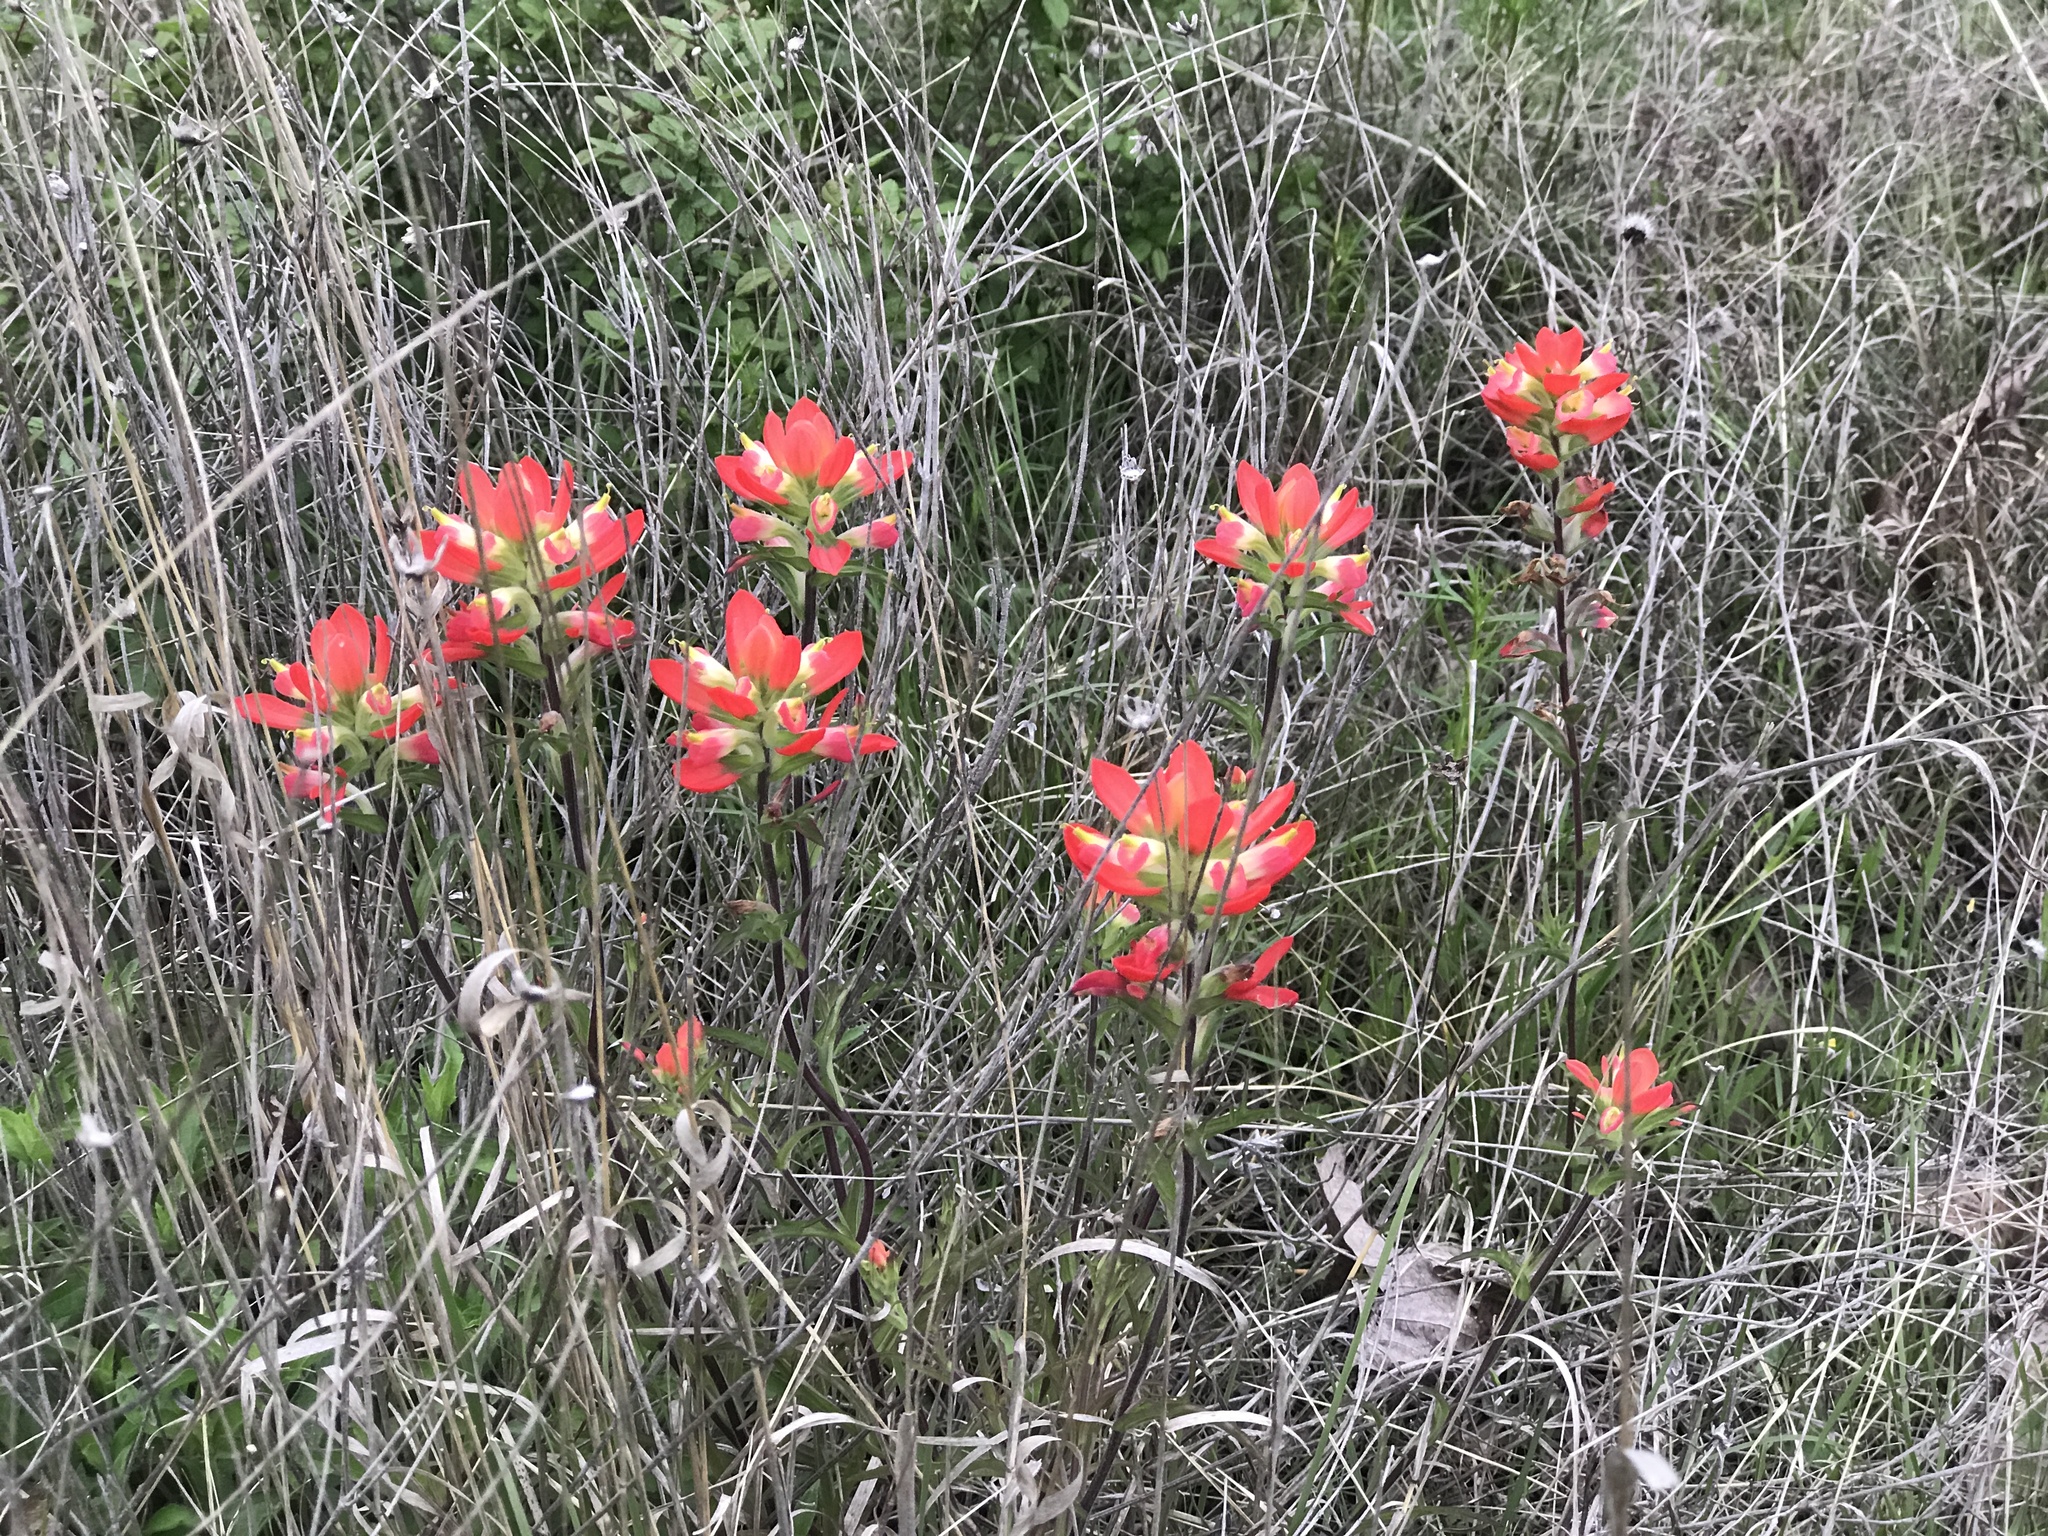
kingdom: Plantae
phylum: Tracheophyta
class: Magnoliopsida
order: Lamiales
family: Orobanchaceae
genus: Castilleja
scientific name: Castilleja indivisa
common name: Texas paintbrush
